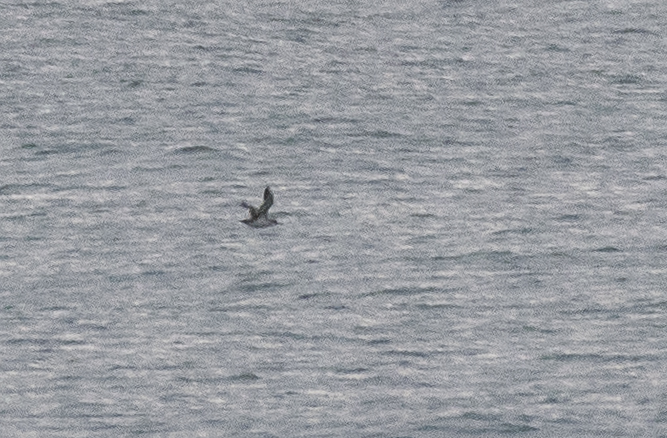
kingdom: Animalia
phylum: Chordata
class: Aves
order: Procellariiformes
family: Procellariidae
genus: Puffinus
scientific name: Puffinus yelkouan
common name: Yelkouan shearwater
